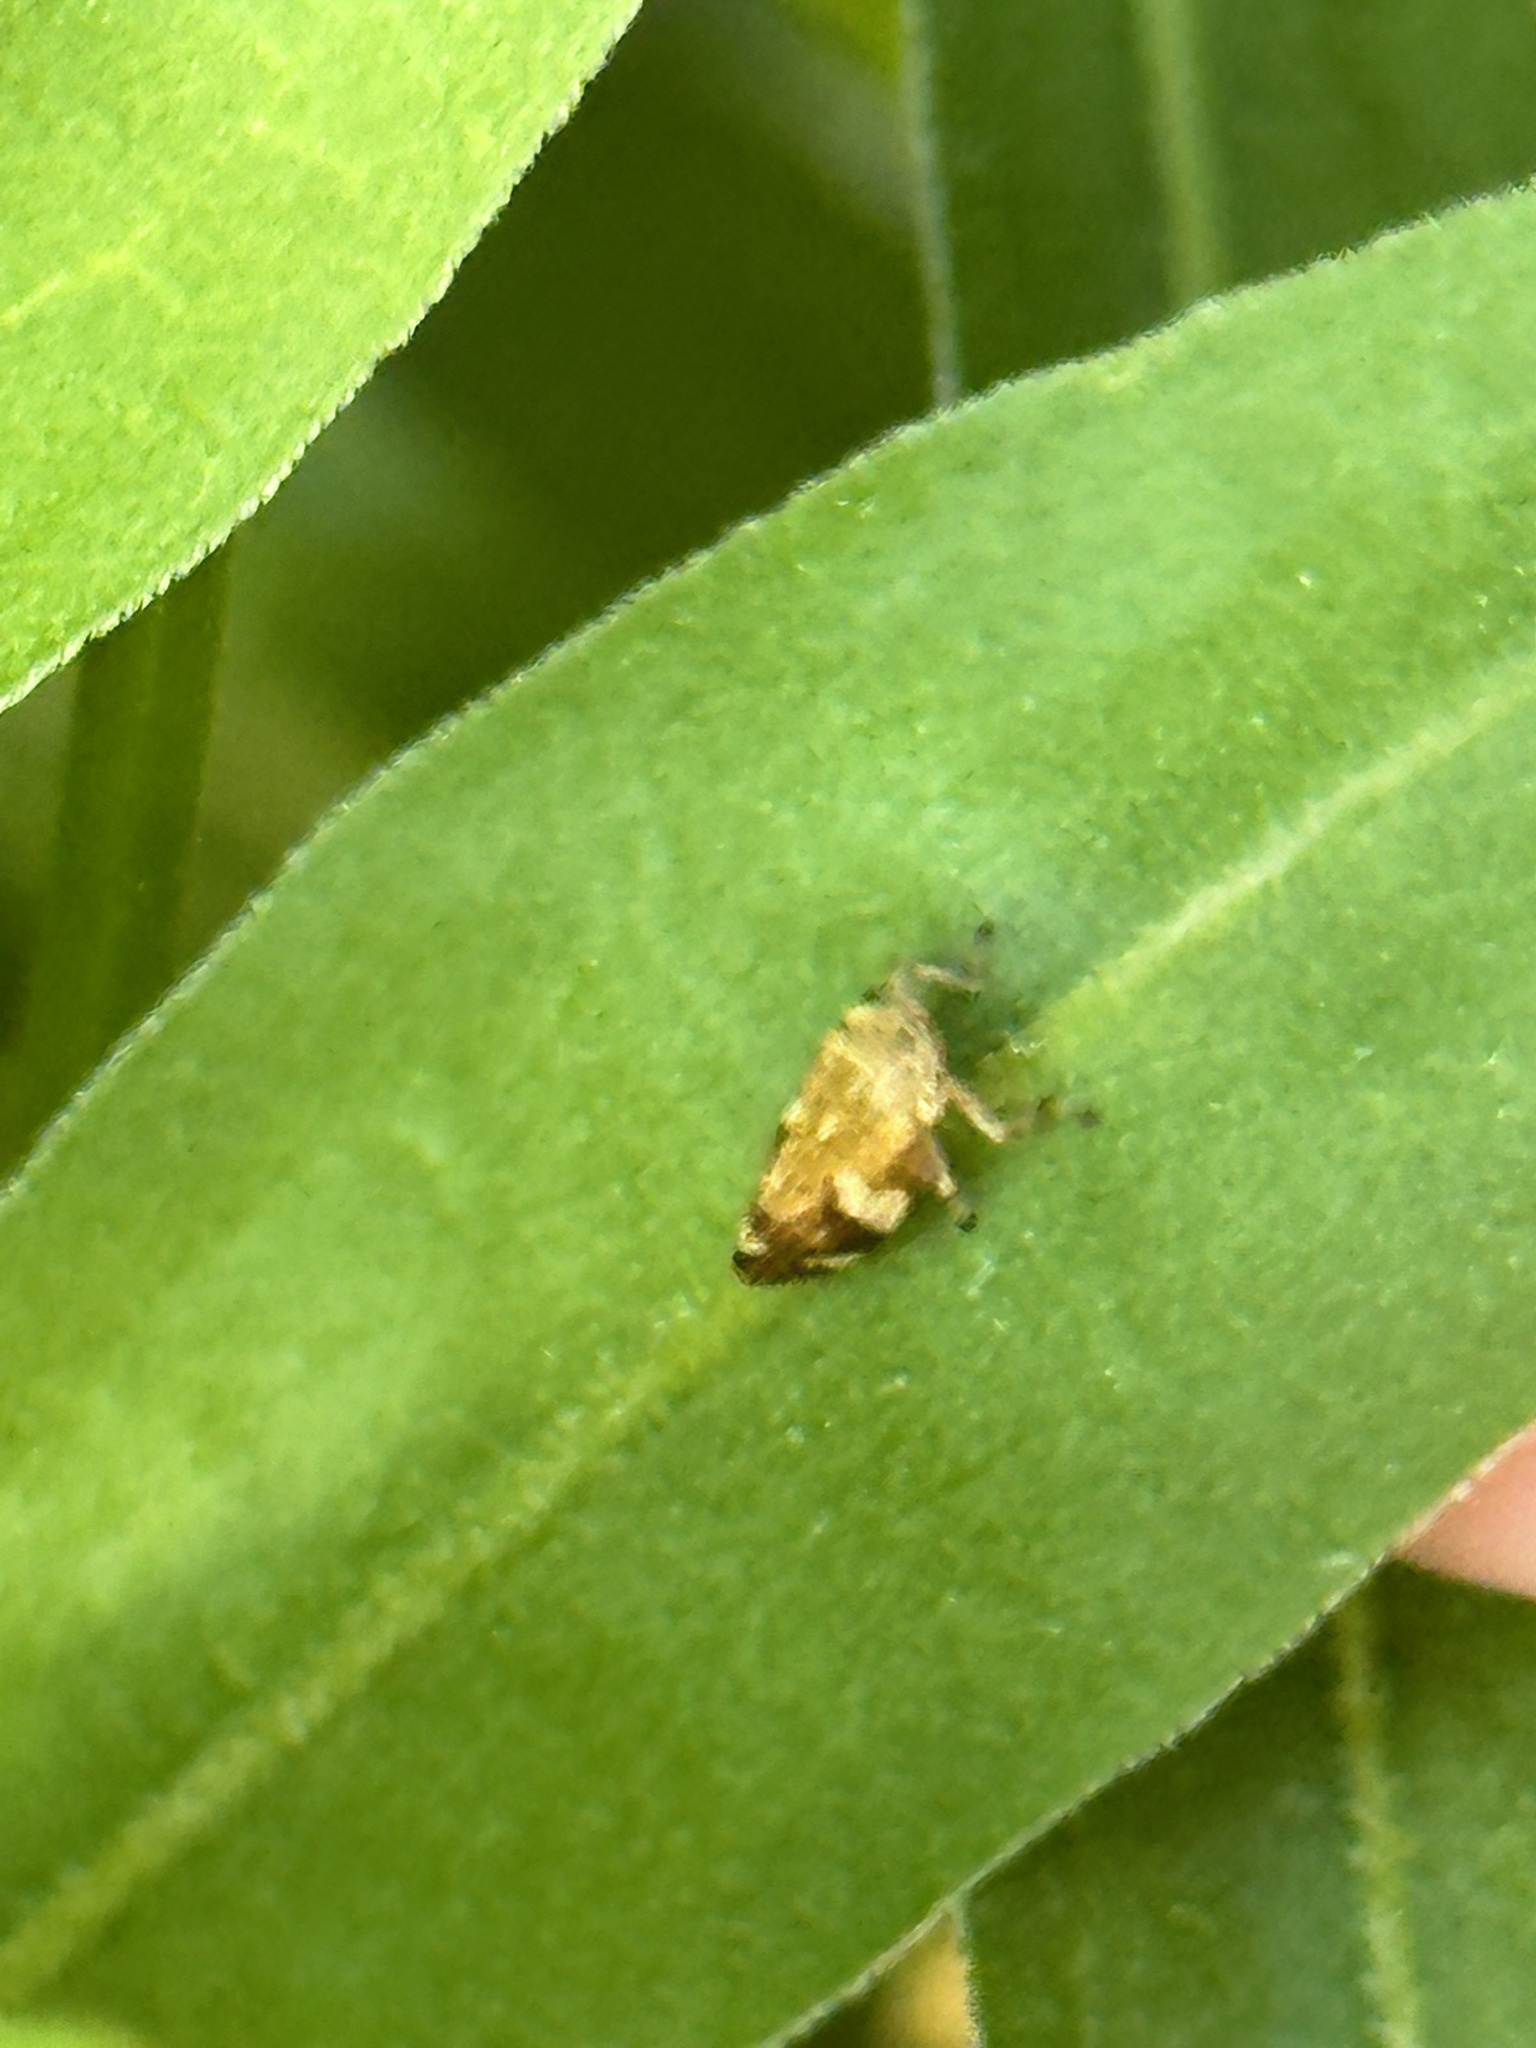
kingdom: Animalia
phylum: Arthropoda
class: Insecta
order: Hemiptera
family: Aphrophoridae
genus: Philaenus
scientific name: Philaenus spumarius
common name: Meadow spittlebug
